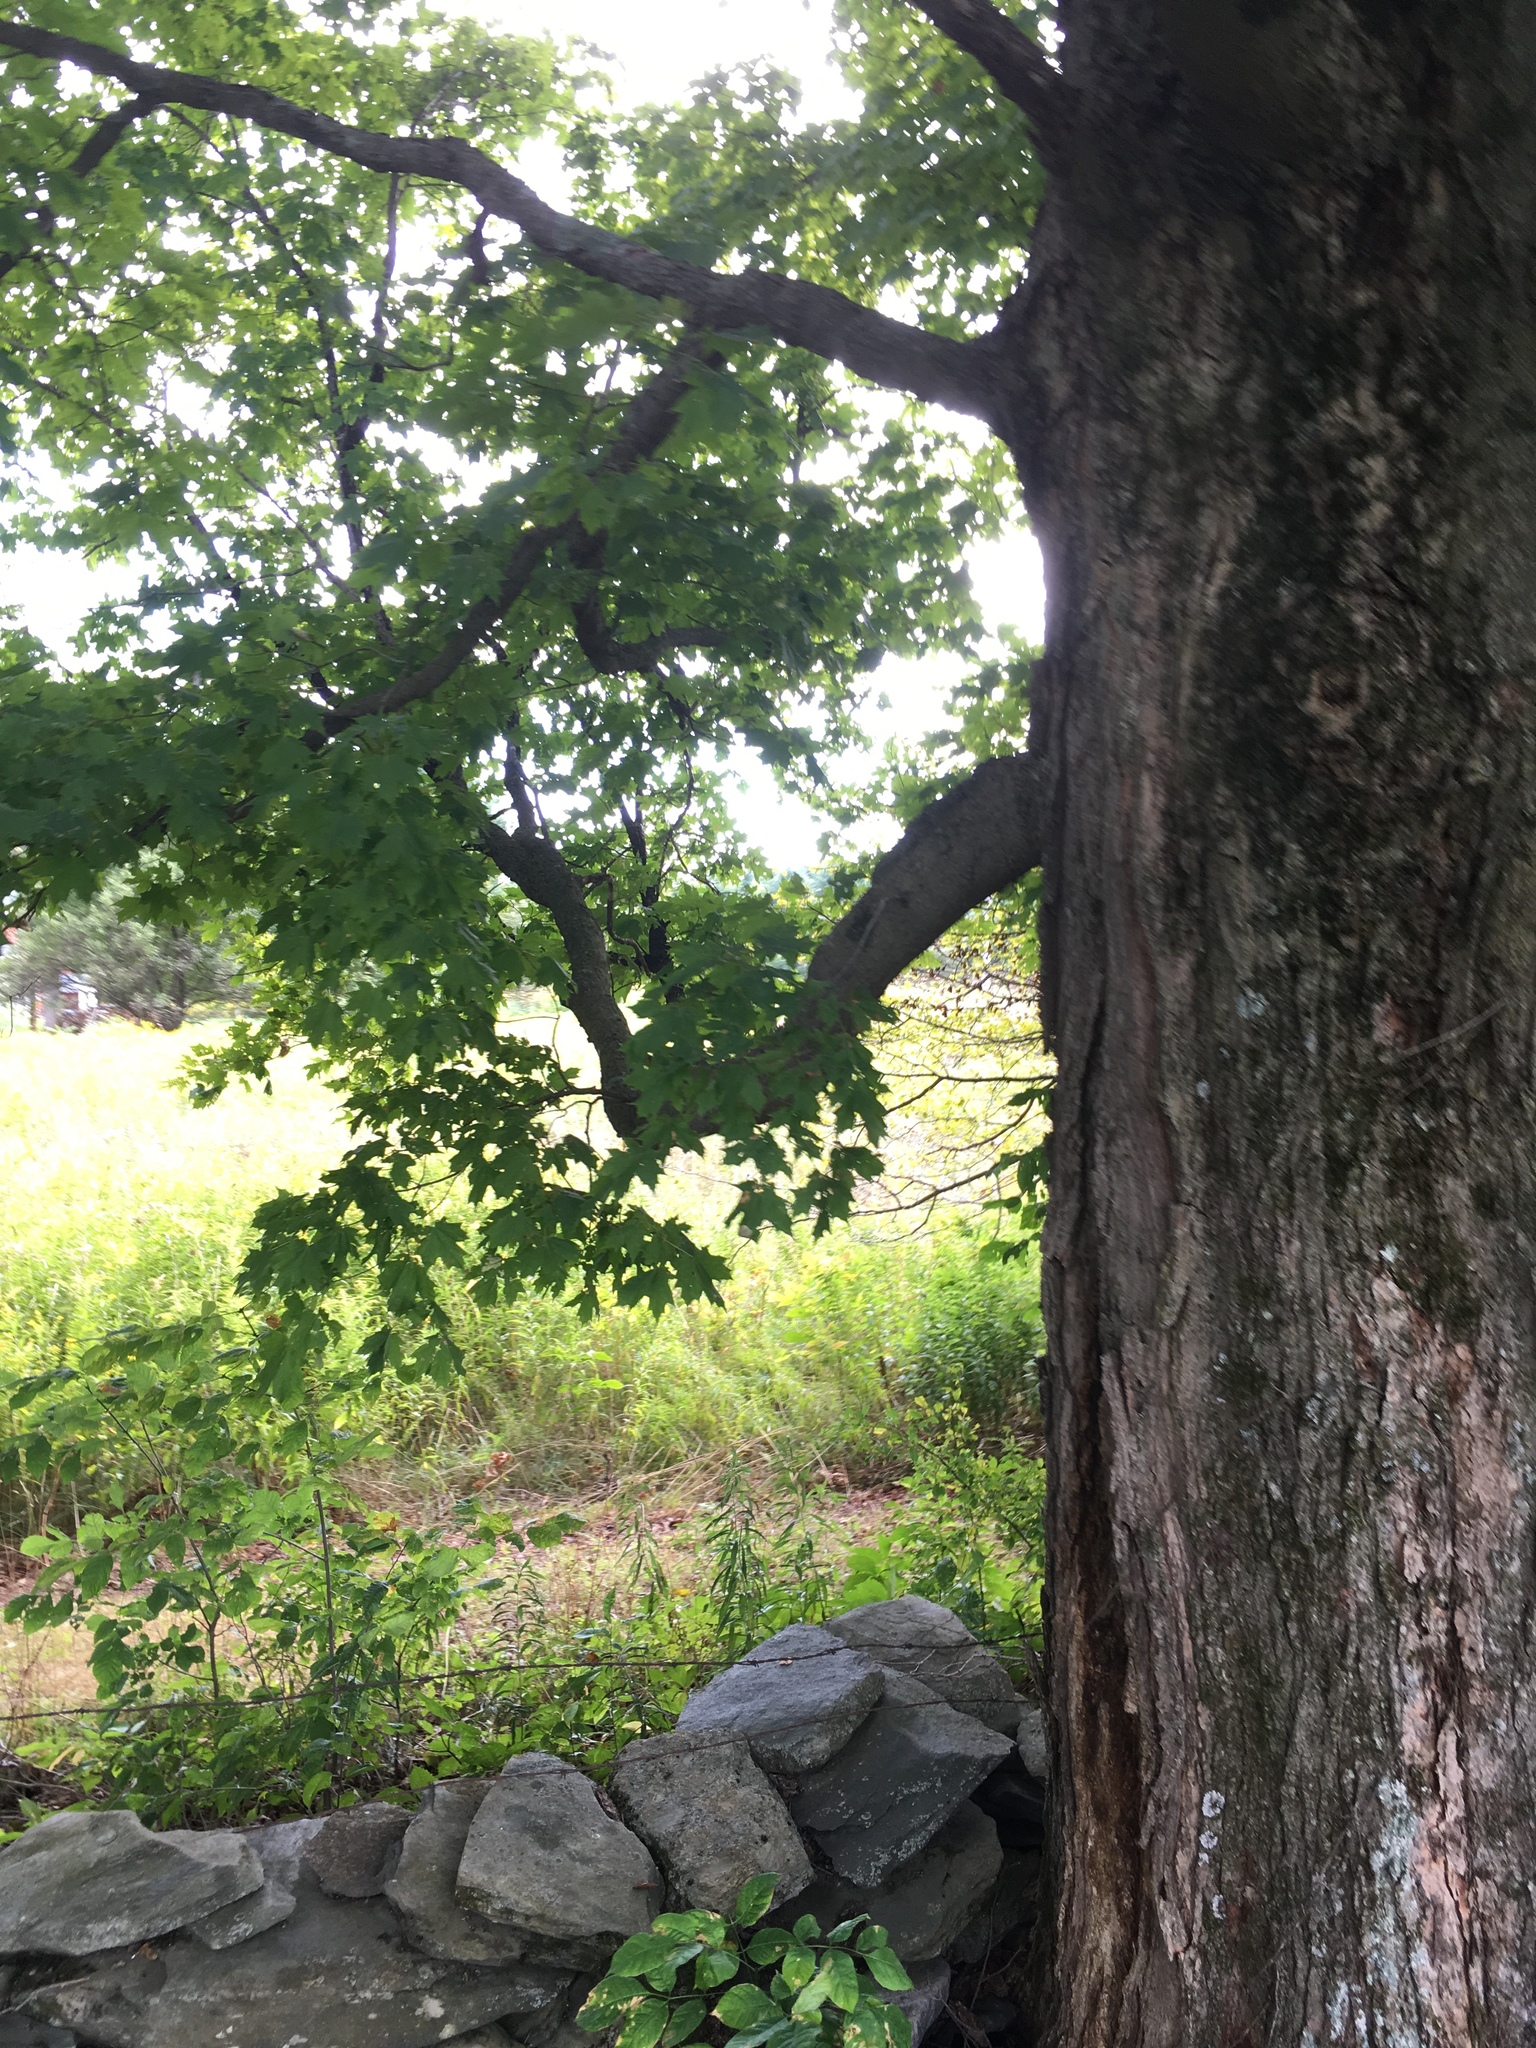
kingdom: Plantae
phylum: Tracheophyta
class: Magnoliopsida
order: Sapindales
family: Sapindaceae
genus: Acer
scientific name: Acer saccharum
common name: Sugar maple
